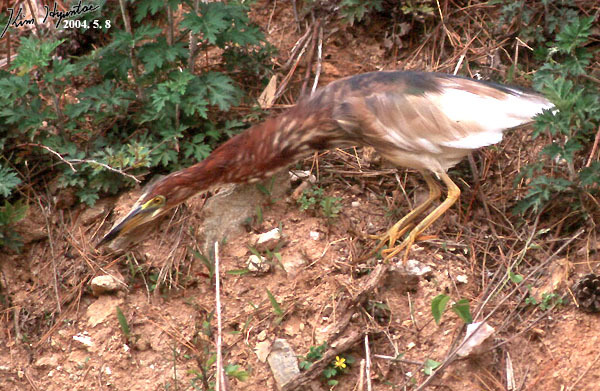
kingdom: Animalia
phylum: Chordata
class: Aves
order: Pelecaniformes
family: Ardeidae
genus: Ardeola
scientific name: Ardeola bacchus
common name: Chinese pond heron
